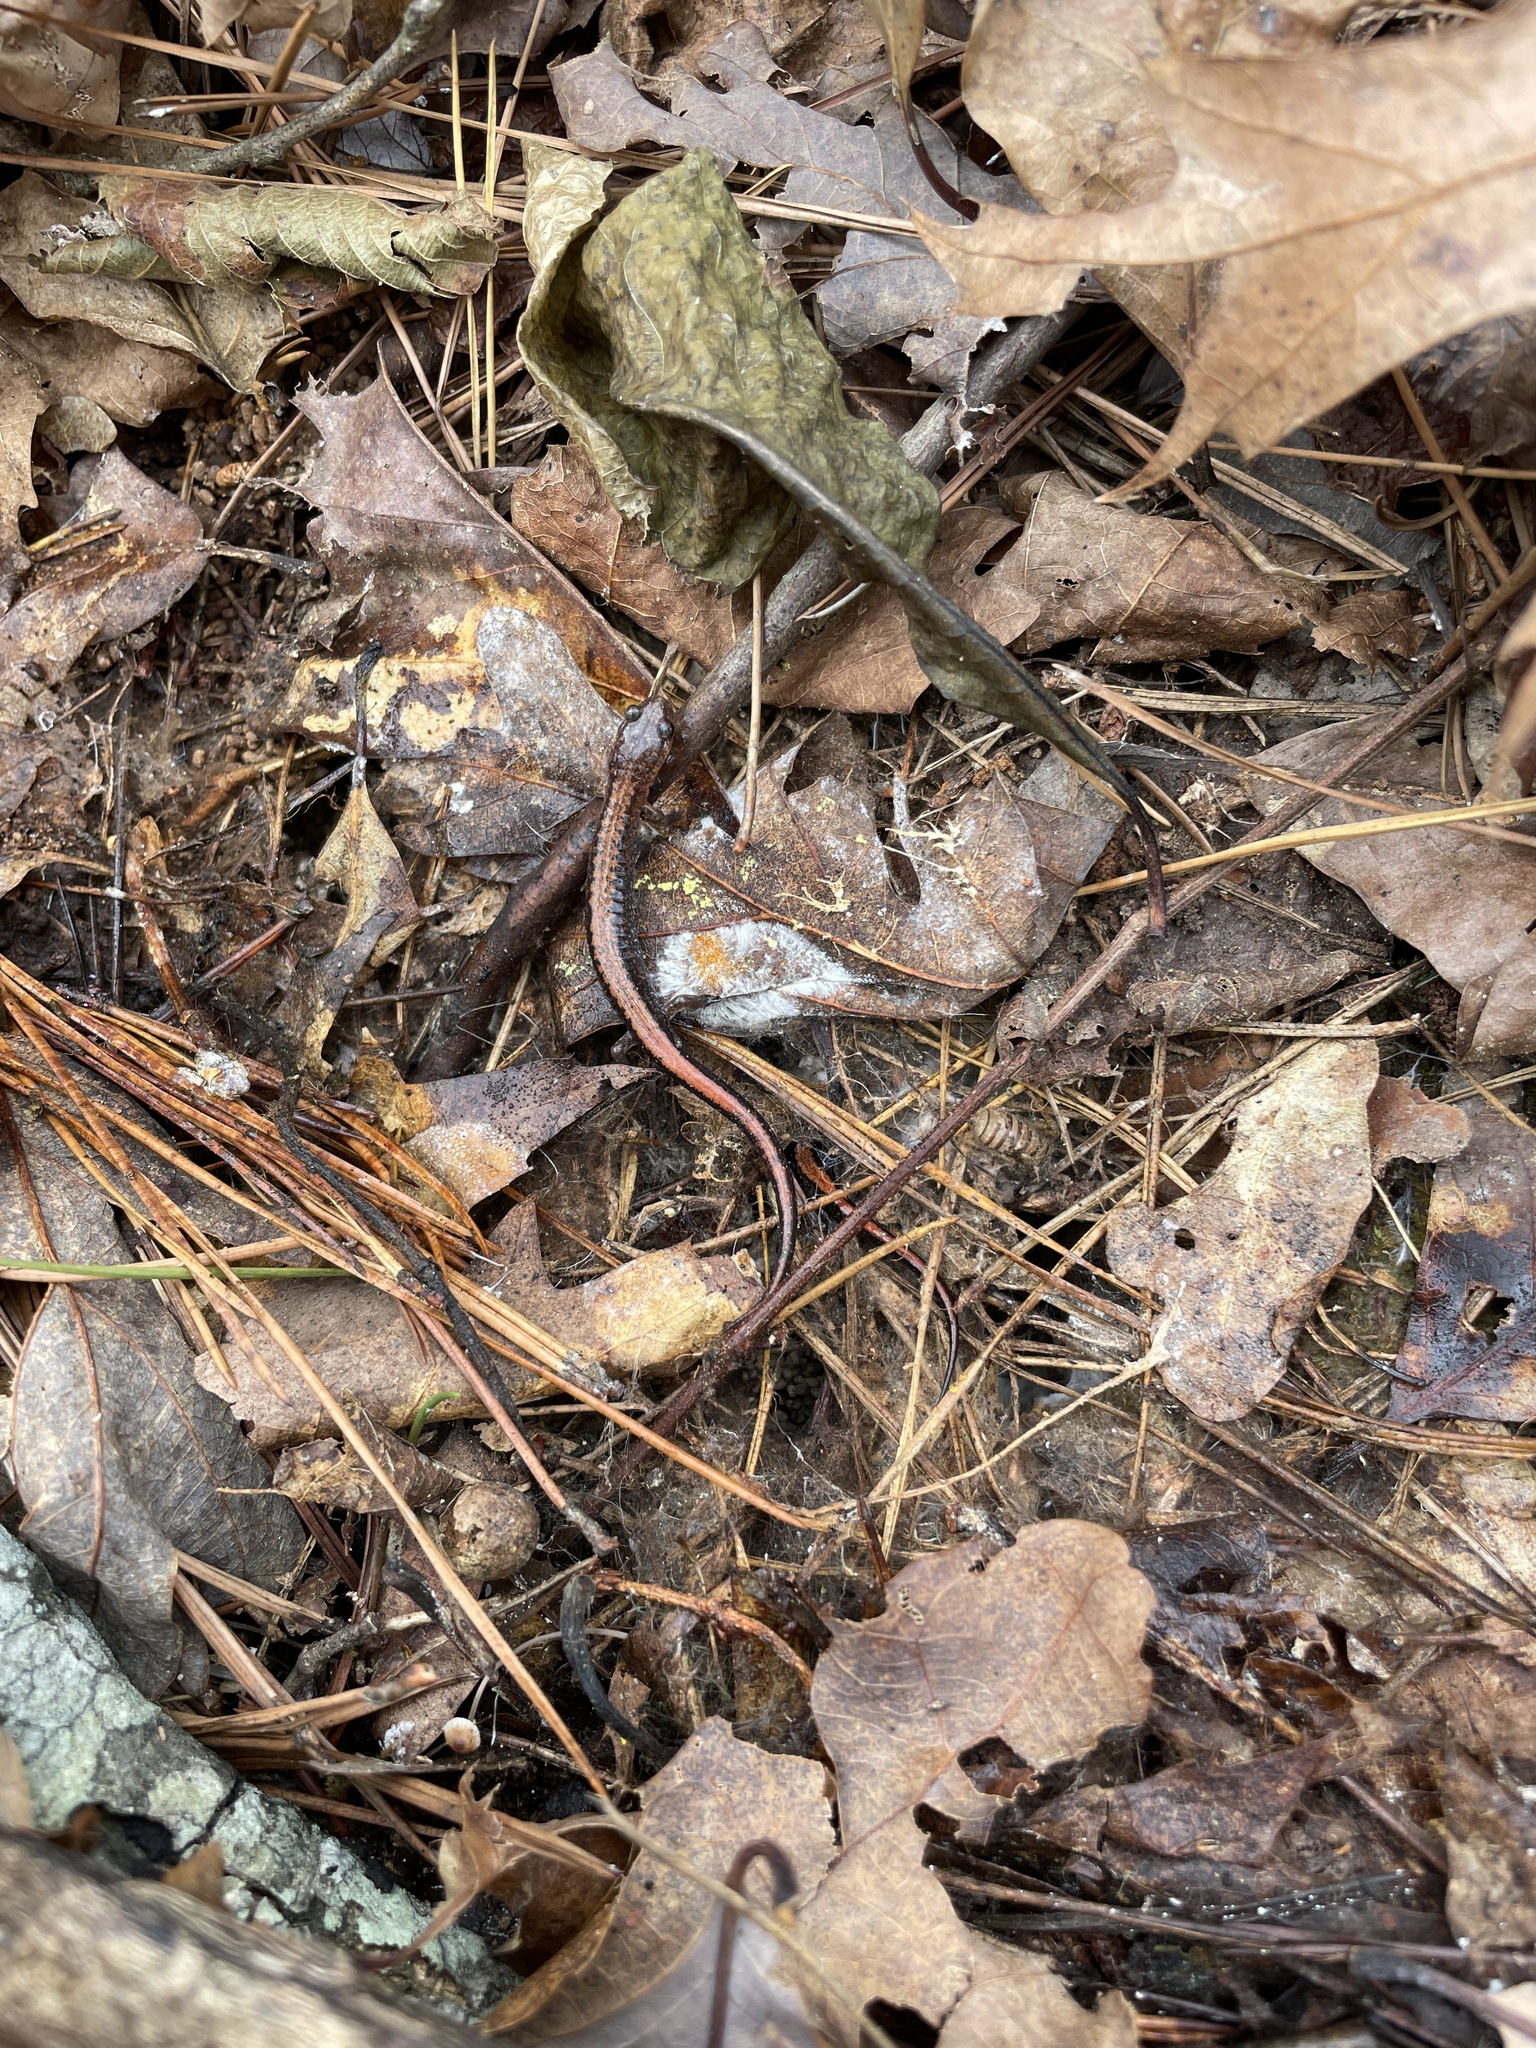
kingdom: Animalia
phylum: Chordata
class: Amphibia
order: Caudata
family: Plethodontidae
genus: Plethodon
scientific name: Plethodon serratus
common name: Southern red-backed salamander
